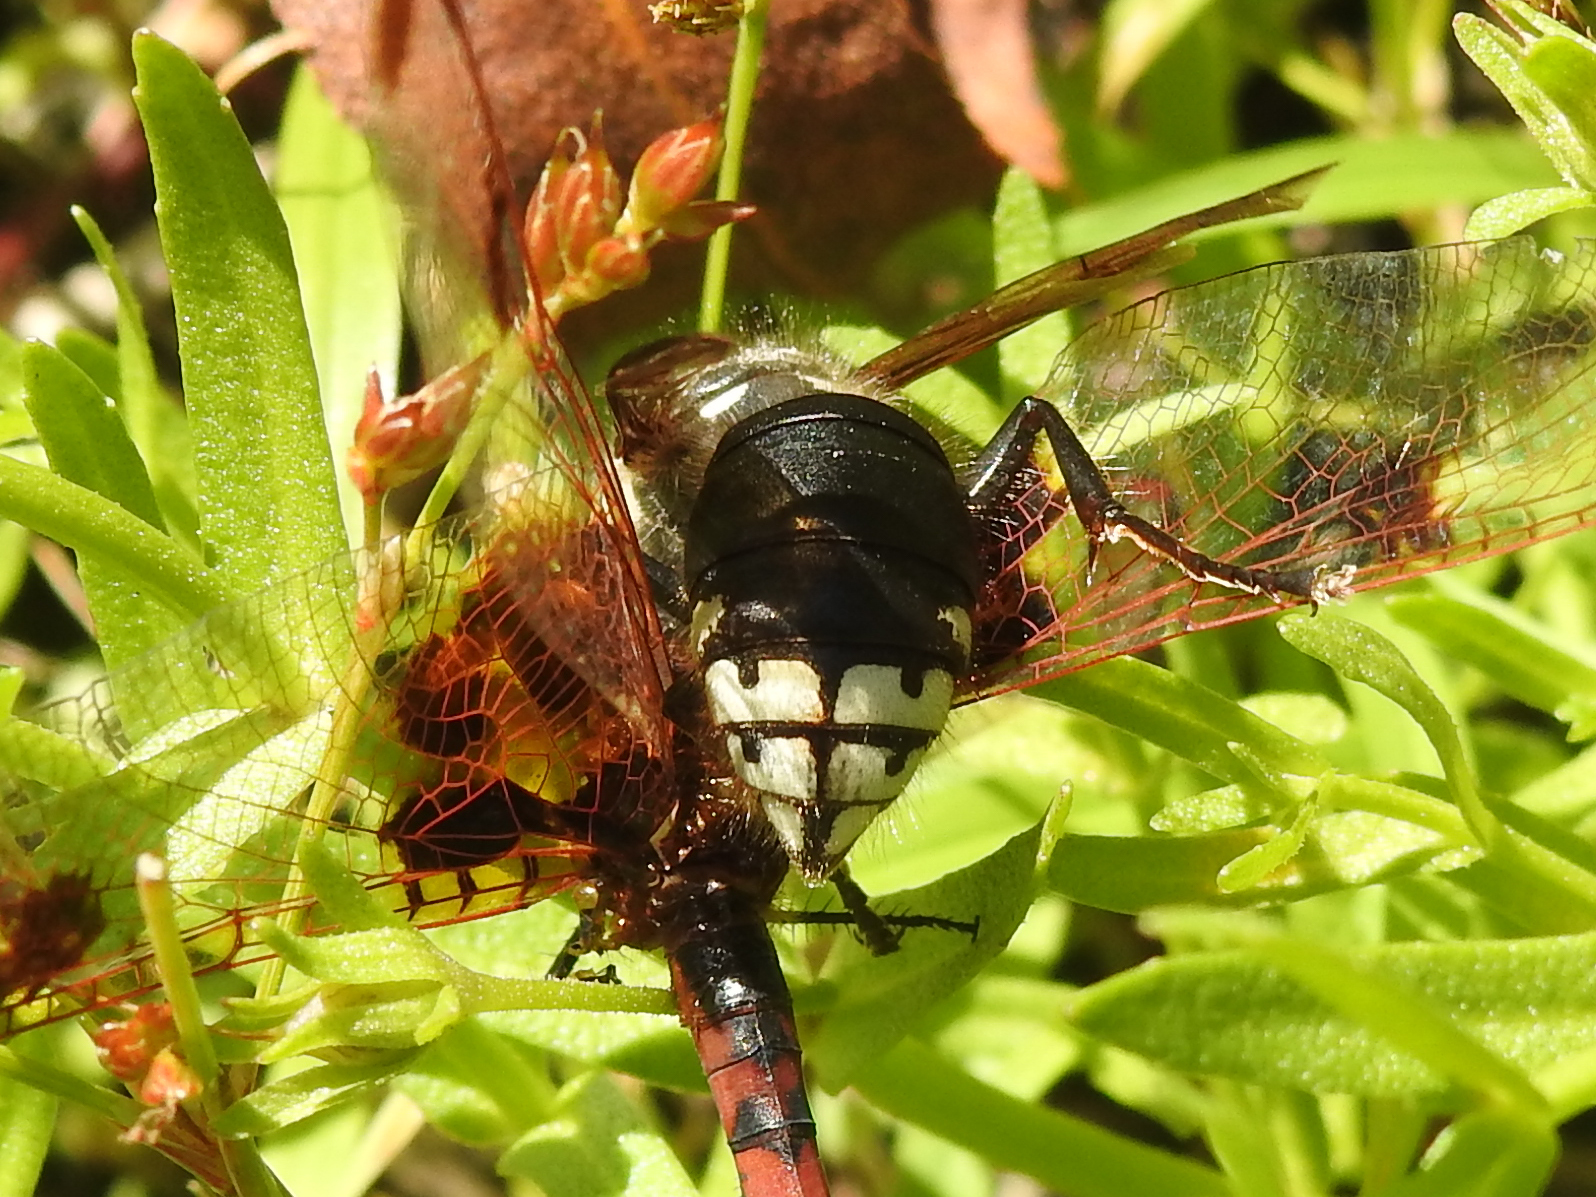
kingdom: Animalia
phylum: Arthropoda
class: Insecta
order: Hymenoptera
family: Vespidae
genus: Dolichovespula
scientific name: Dolichovespula maculata
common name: Bald-faced hornet
